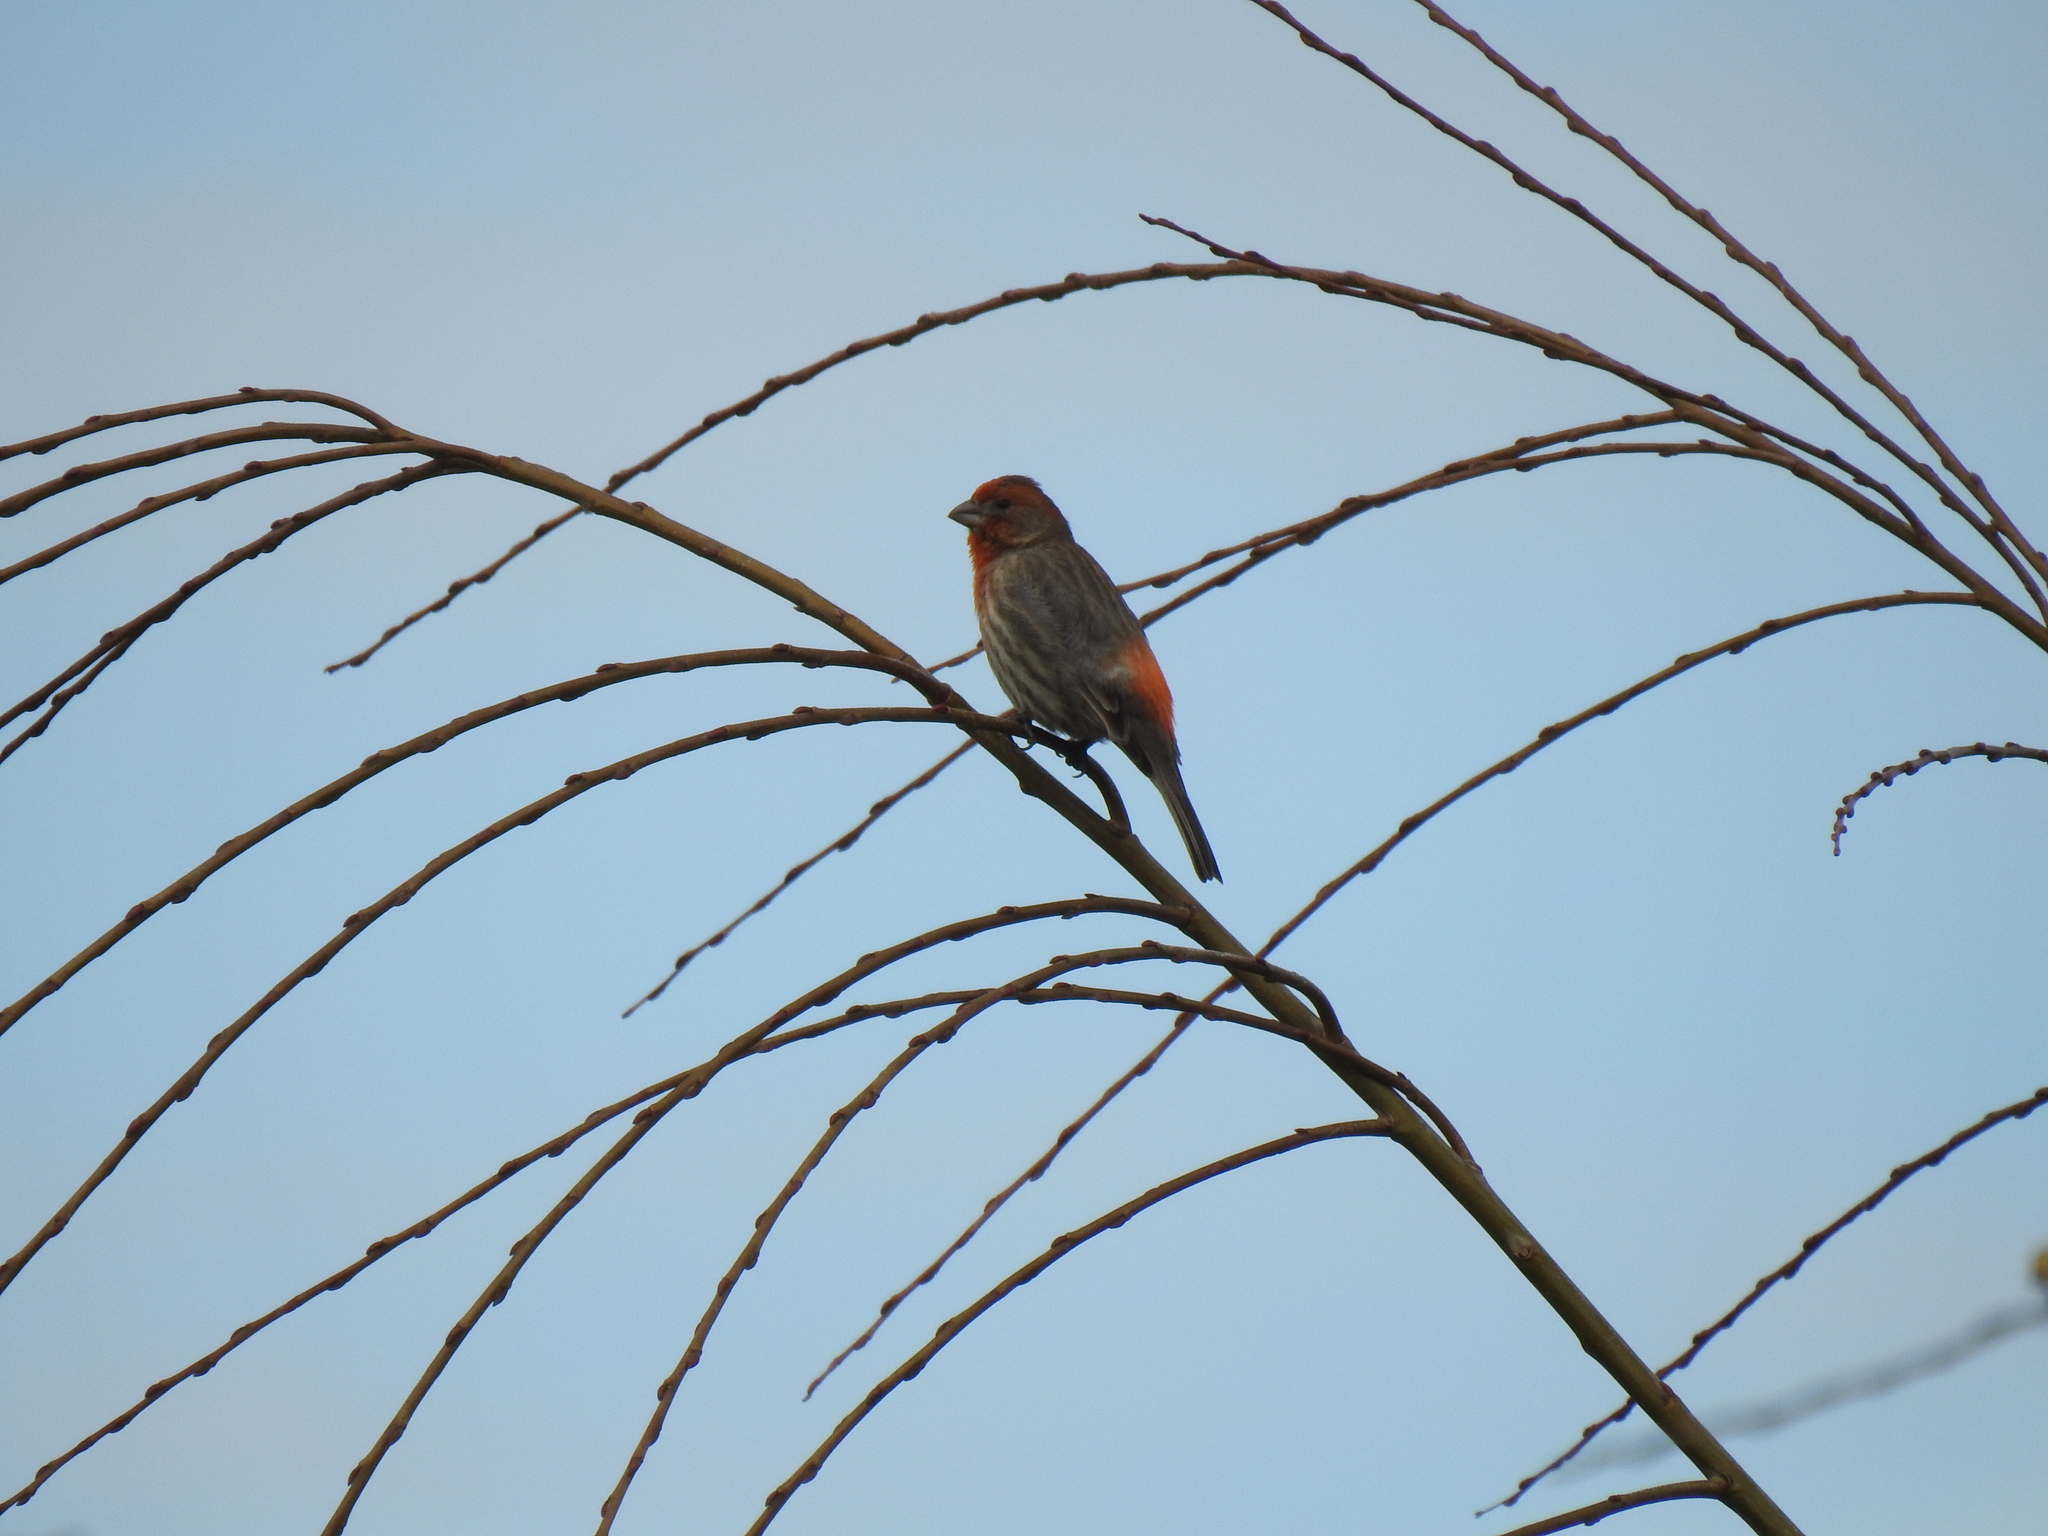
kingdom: Animalia
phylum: Chordata
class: Aves
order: Passeriformes
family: Fringillidae
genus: Haemorhous
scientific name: Haemorhous mexicanus
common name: House finch
